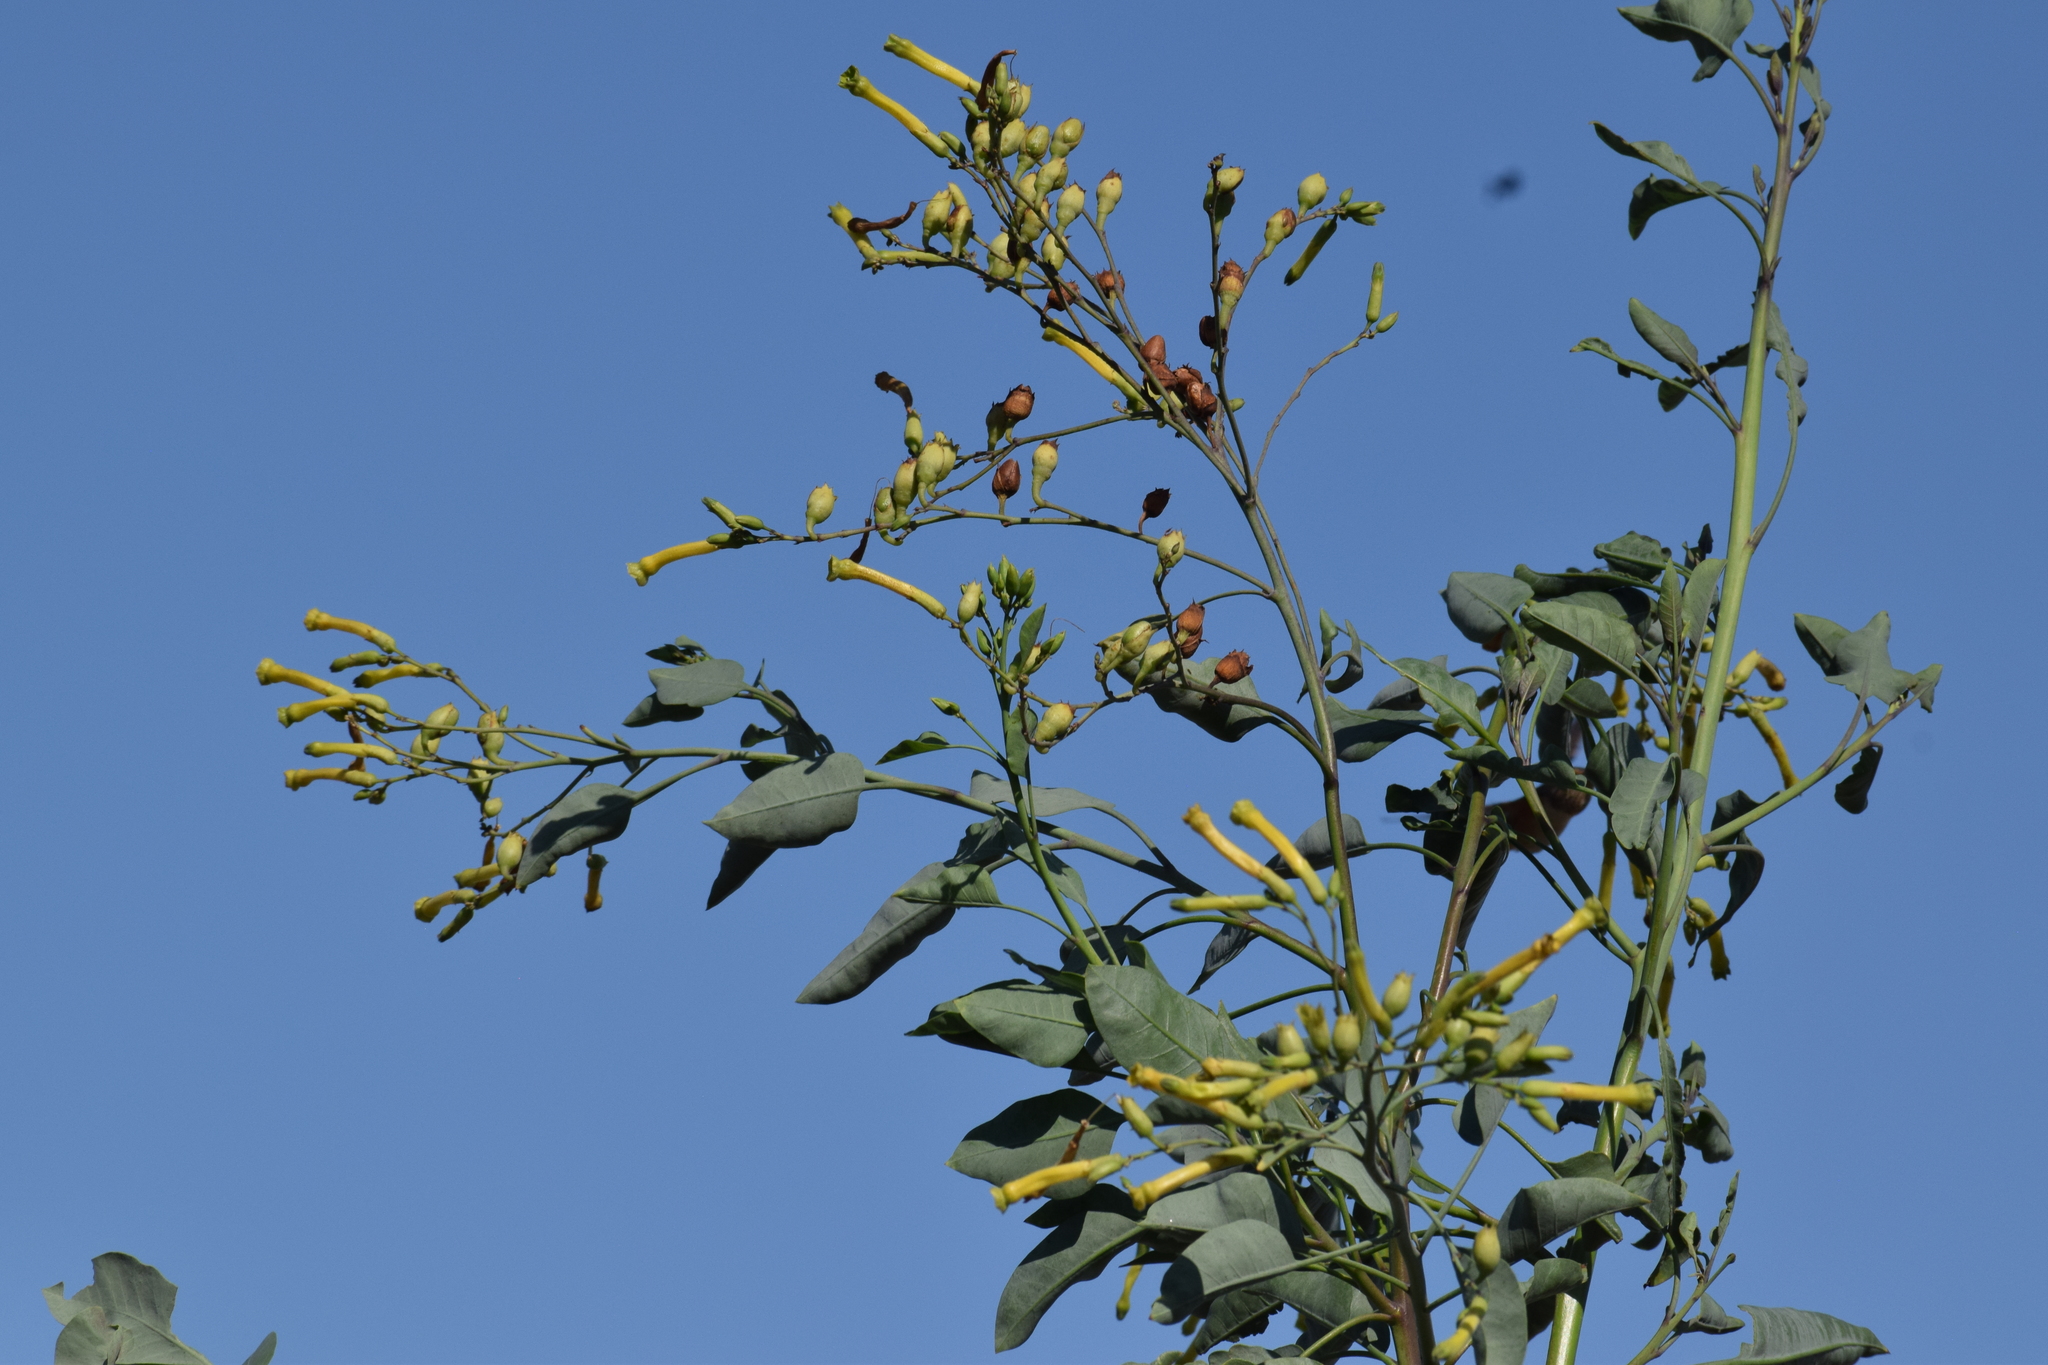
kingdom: Plantae
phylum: Tracheophyta
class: Magnoliopsida
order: Solanales
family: Solanaceae
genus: Nicotiana
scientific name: Nicotiana glauca
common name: Tree tobacco
